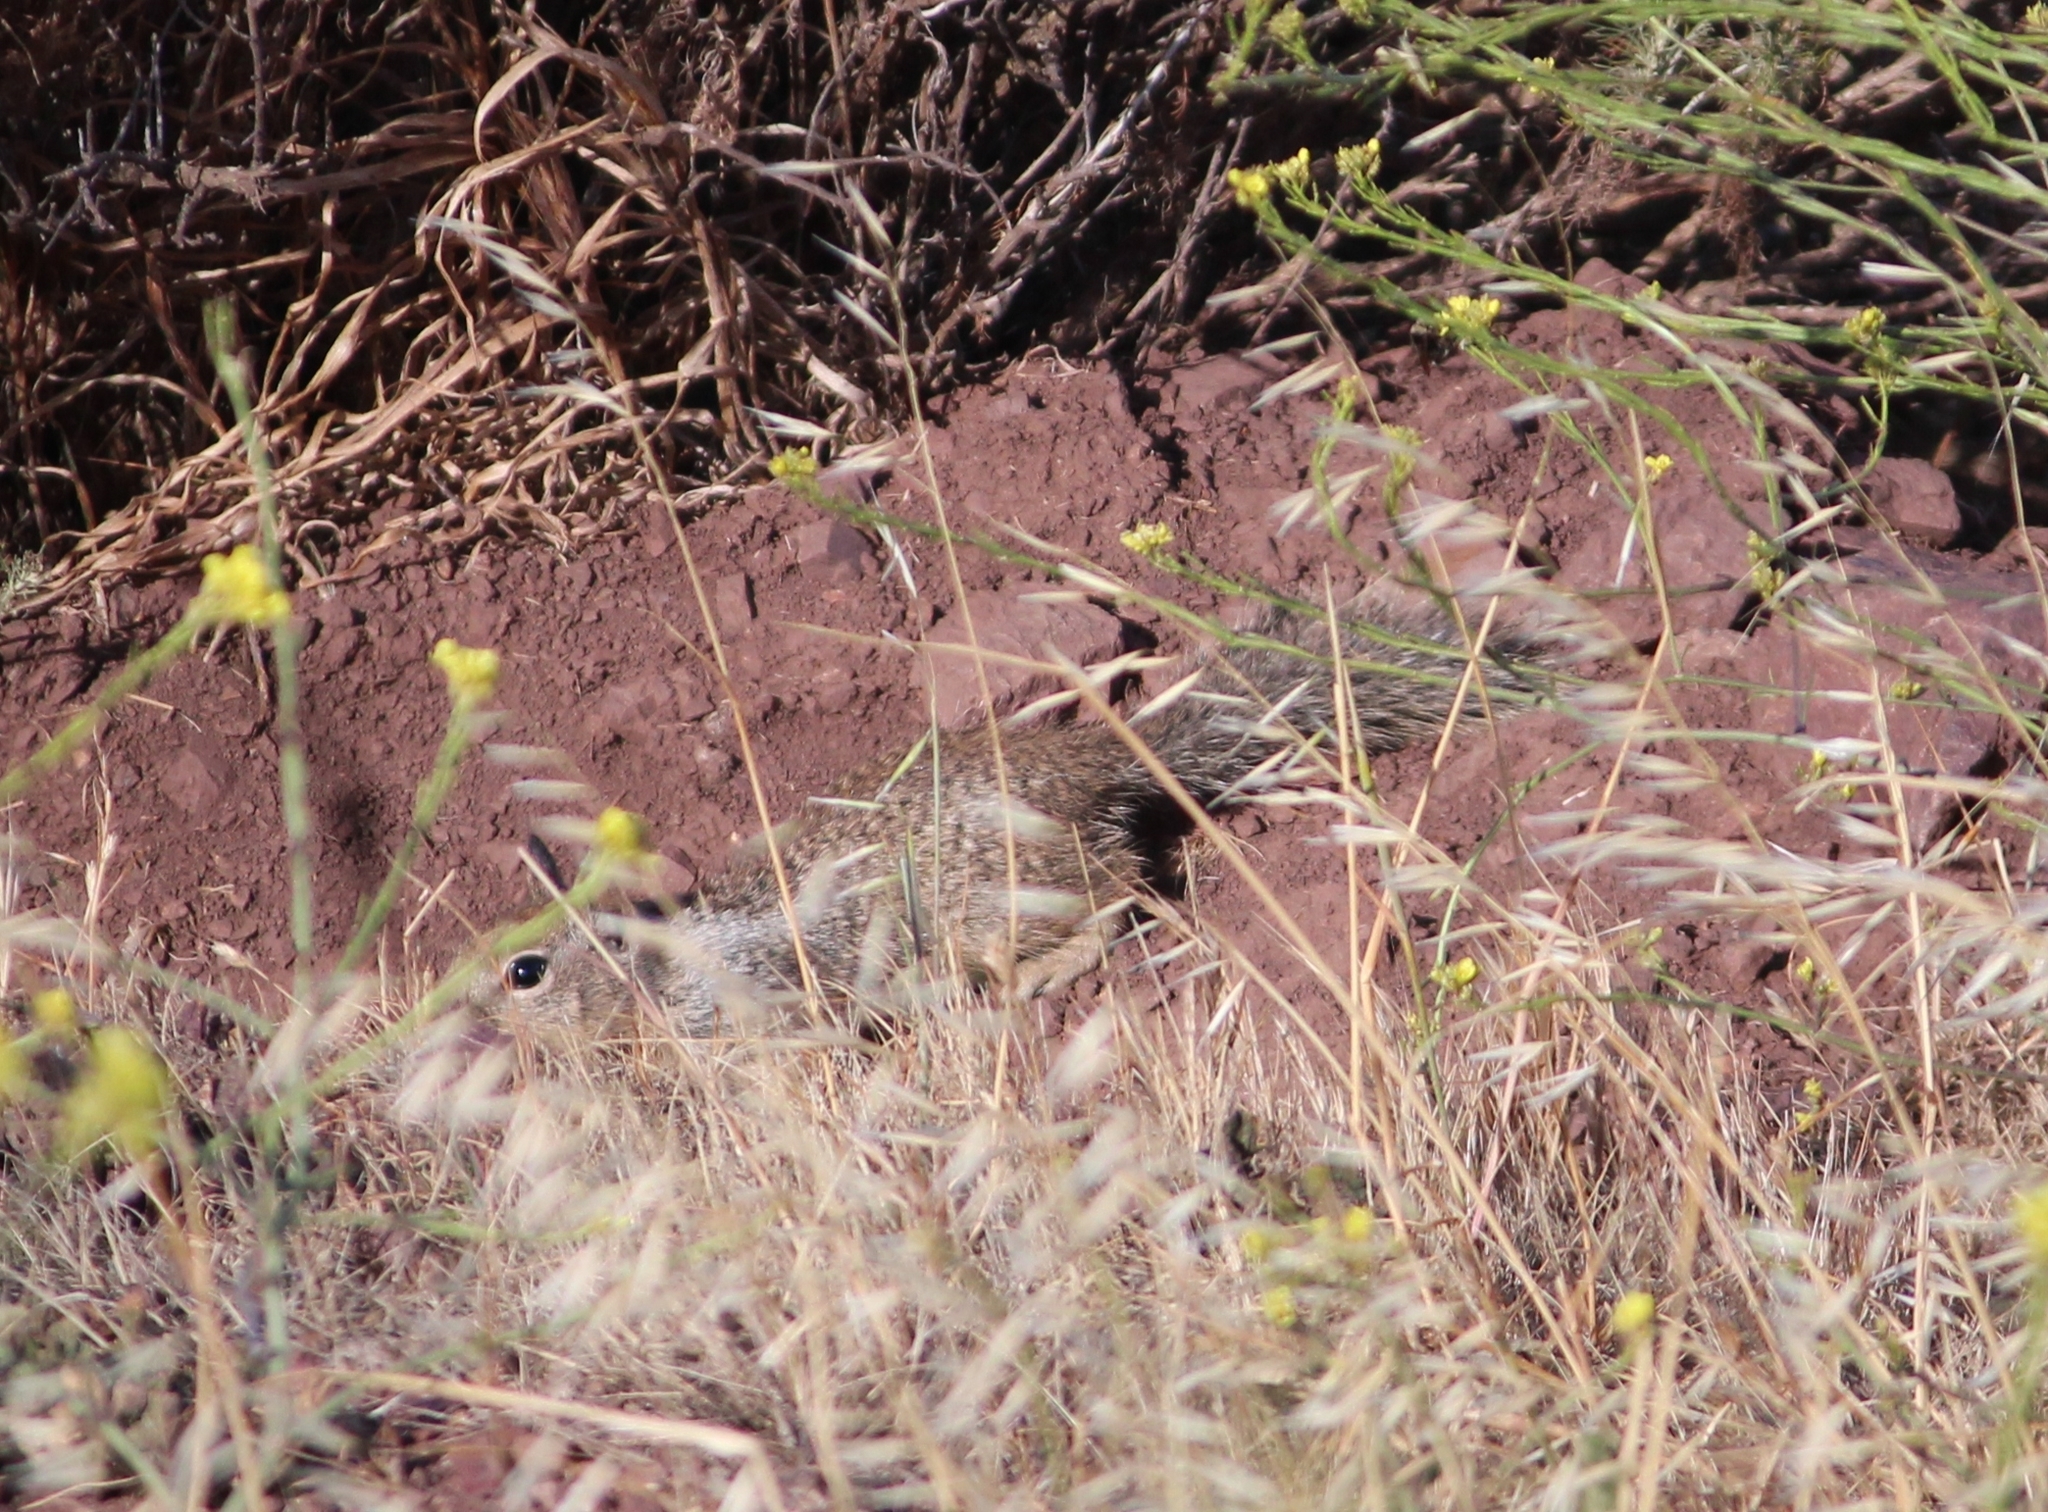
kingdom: Animalia
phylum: Chordata
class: Mammalia
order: Rodentia
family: Sciuridae
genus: Otospermophilus
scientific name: Otospermophilus beecheyi
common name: California ground squirrel
